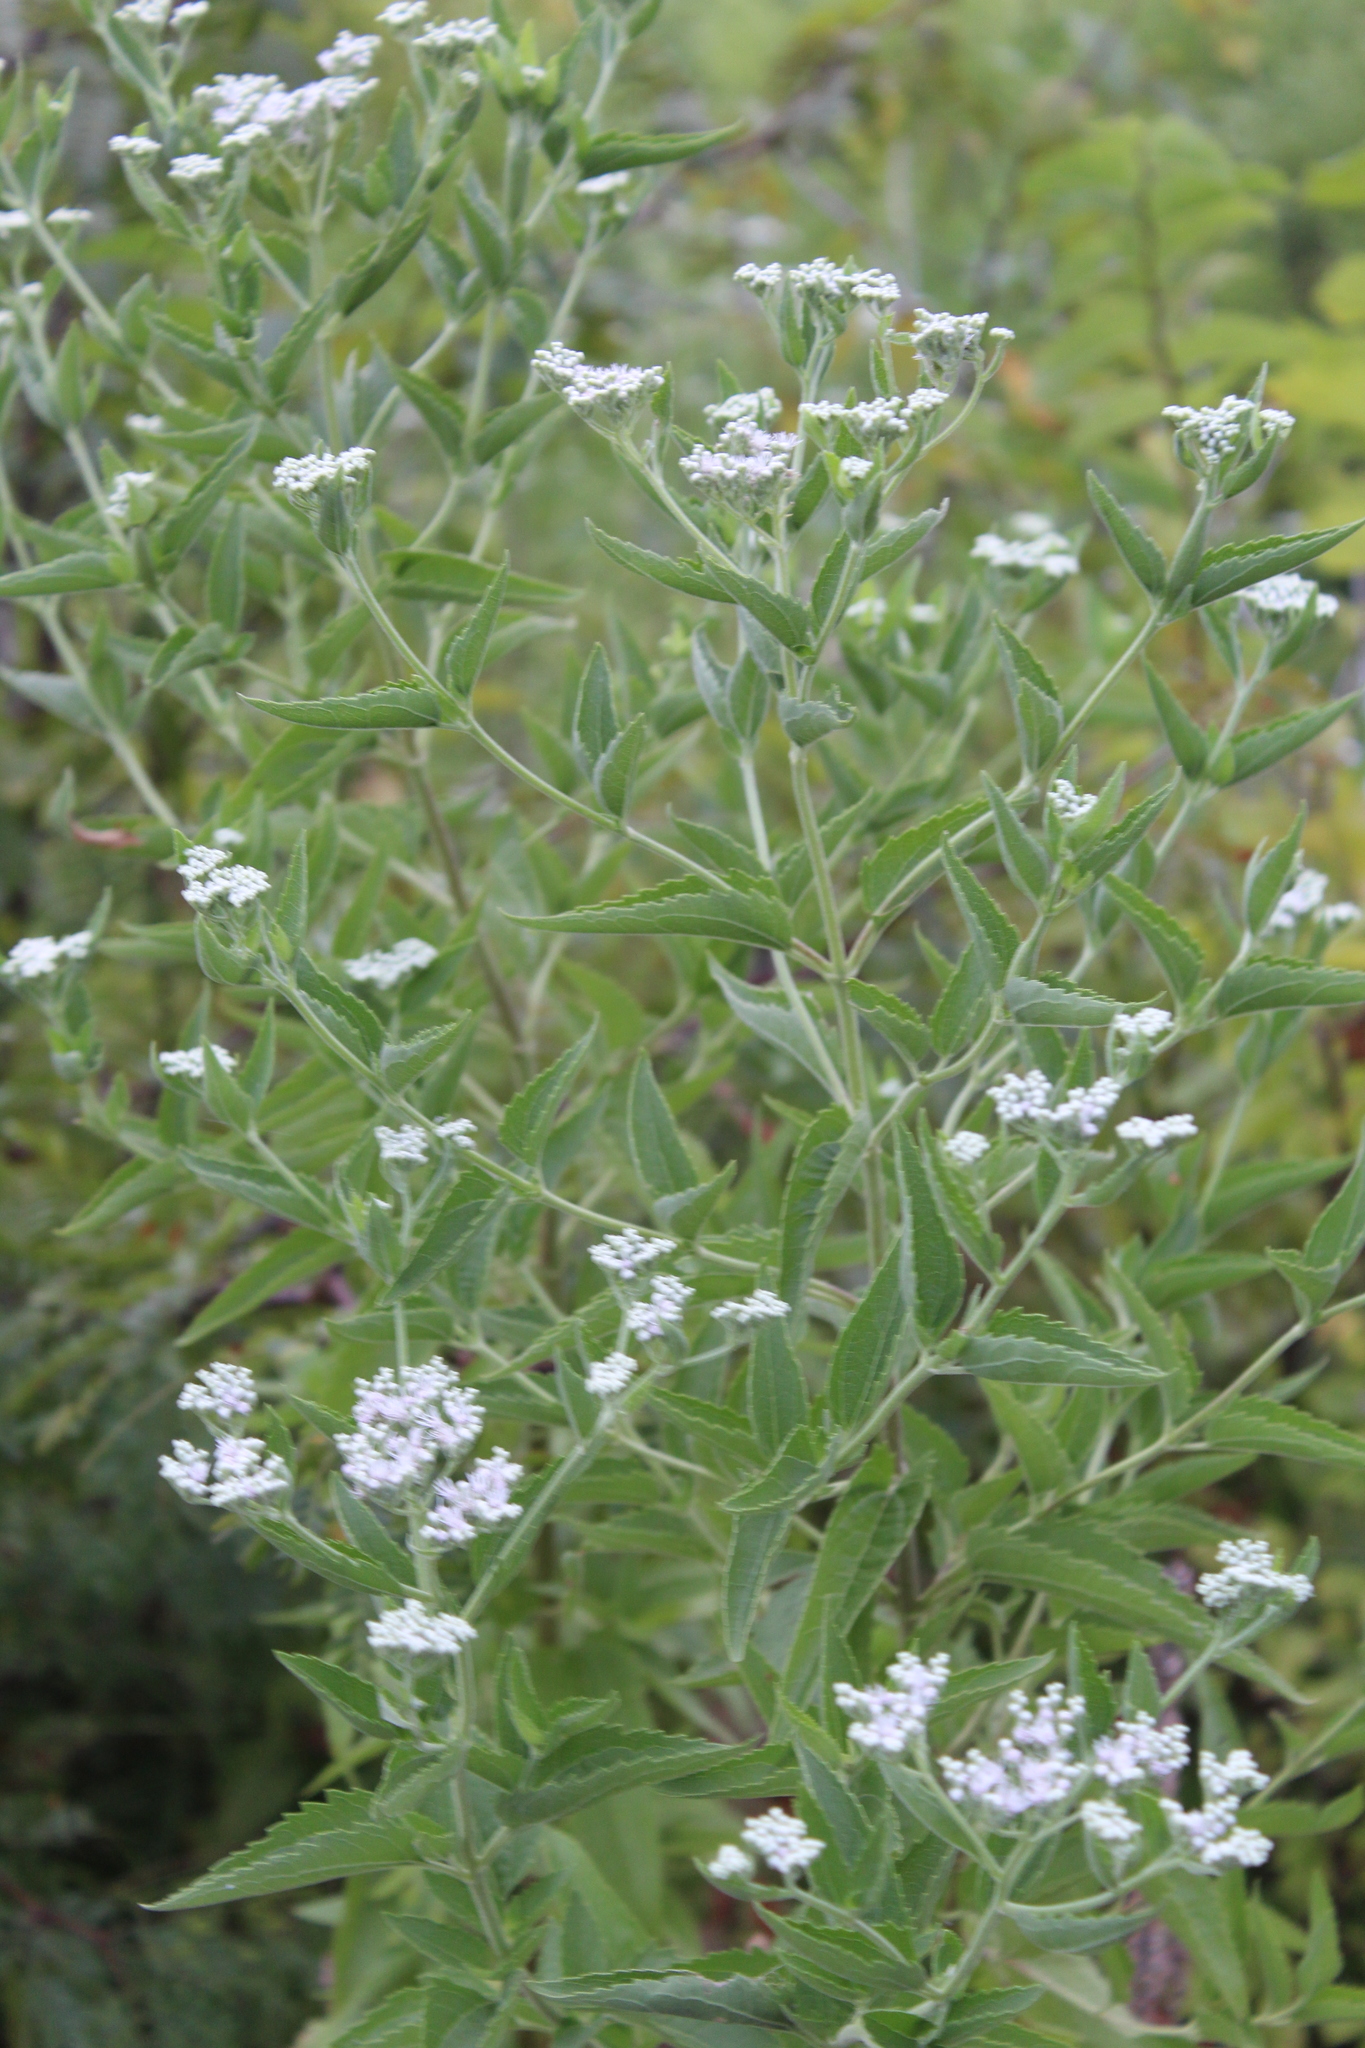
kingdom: Plantae
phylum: Tracheophyta
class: Magnoliopsida
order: Asterales
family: Asteraceae
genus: Eupatorium
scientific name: Eupatorium serotinum
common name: Late boneset
